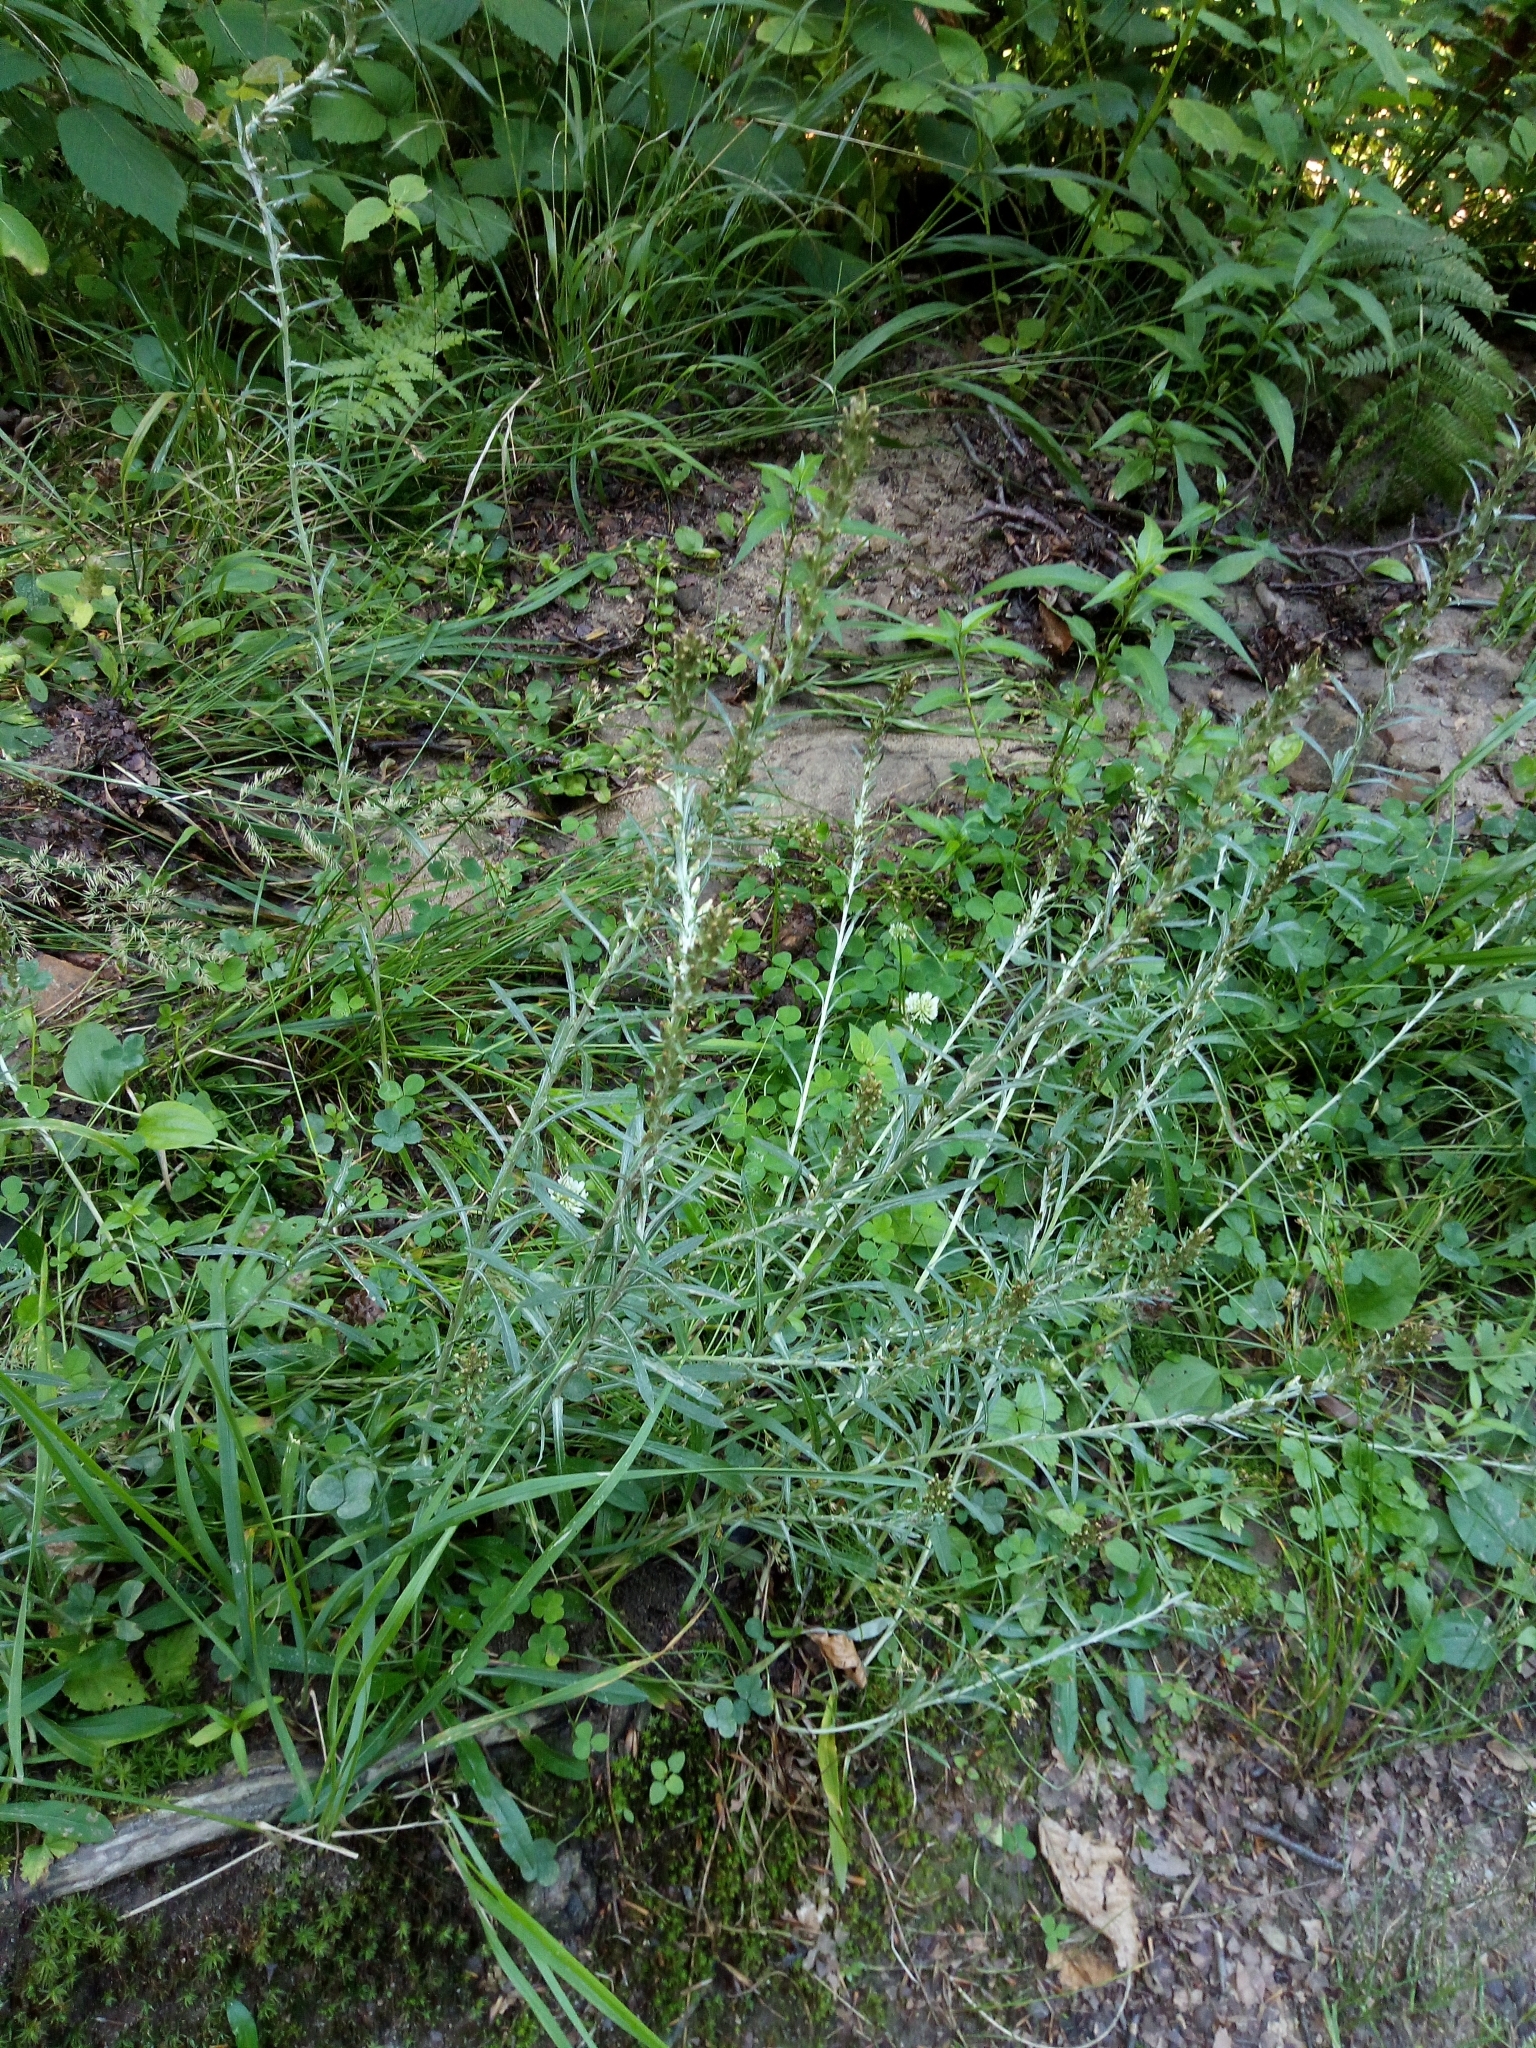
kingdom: Plantae
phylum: Tracheophyta
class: Magnoliopsida
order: Asterales
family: Asteraceae
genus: Omalotheca
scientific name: Omalotheca sylvatica
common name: Heath cudweed
